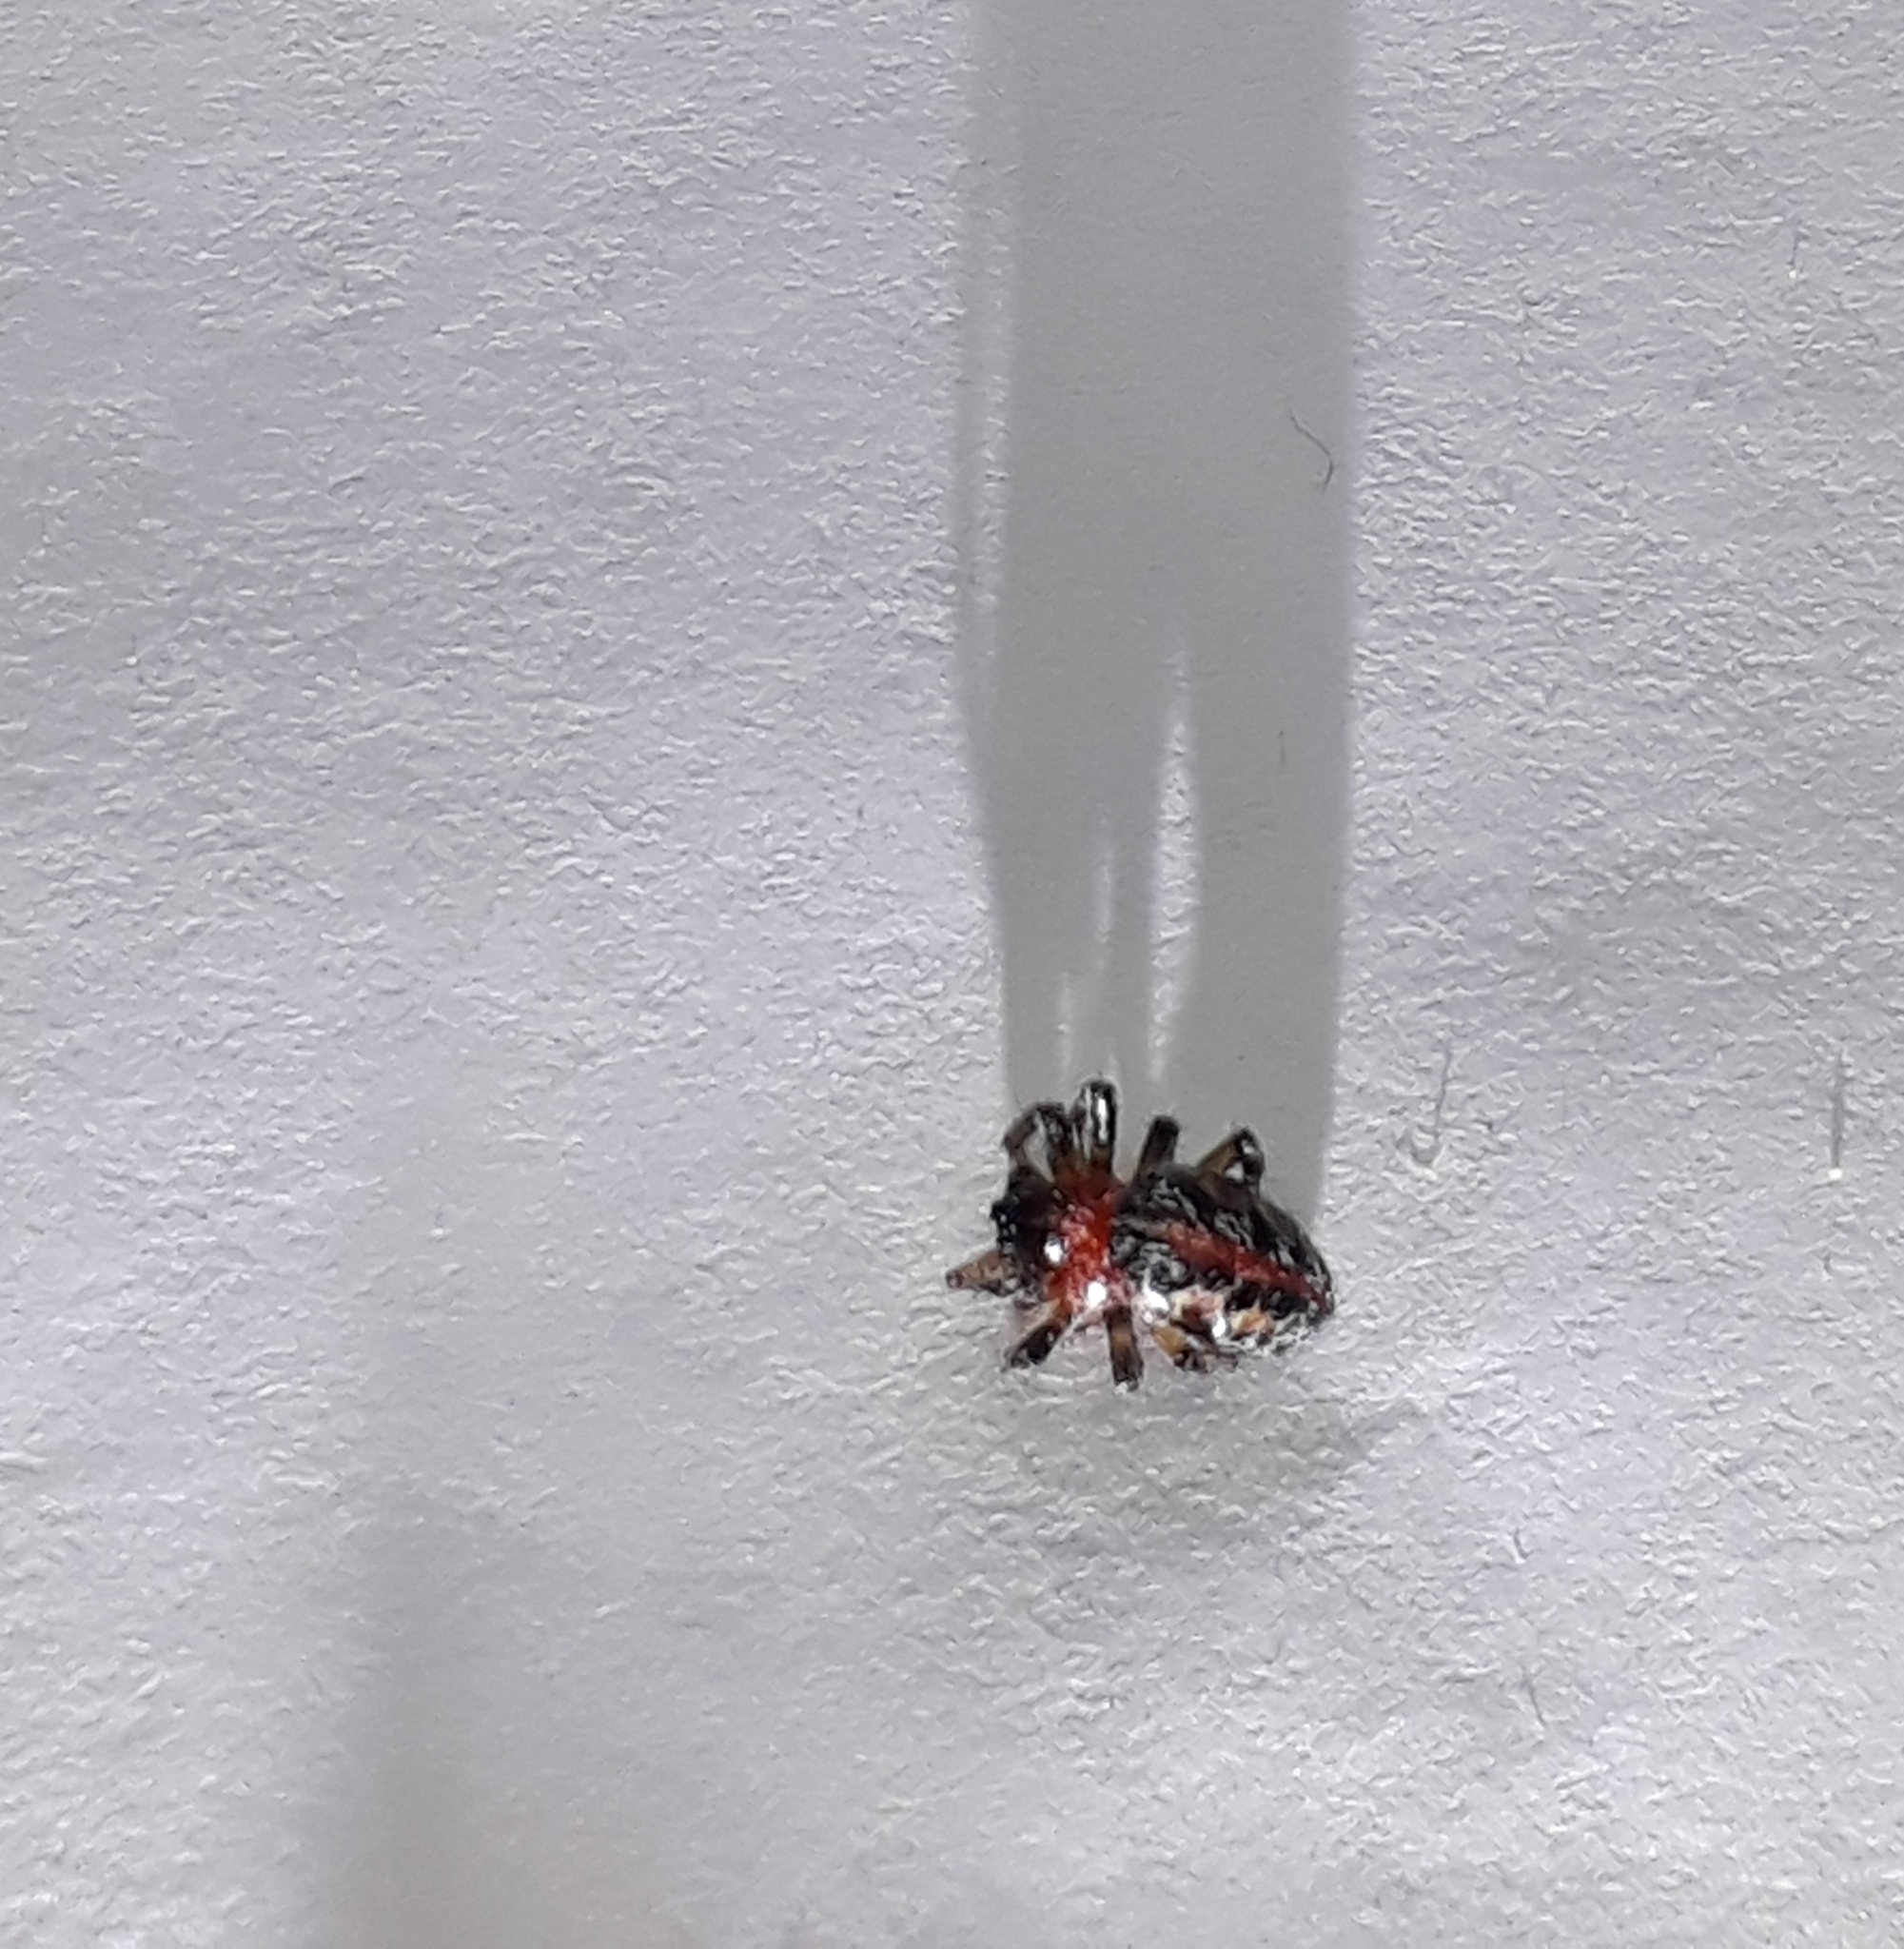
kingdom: Animalia
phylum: Arthropoda
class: Arachnida
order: Araneae
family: Araneidae
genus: Alpaida
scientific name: Alpaida versicolor
